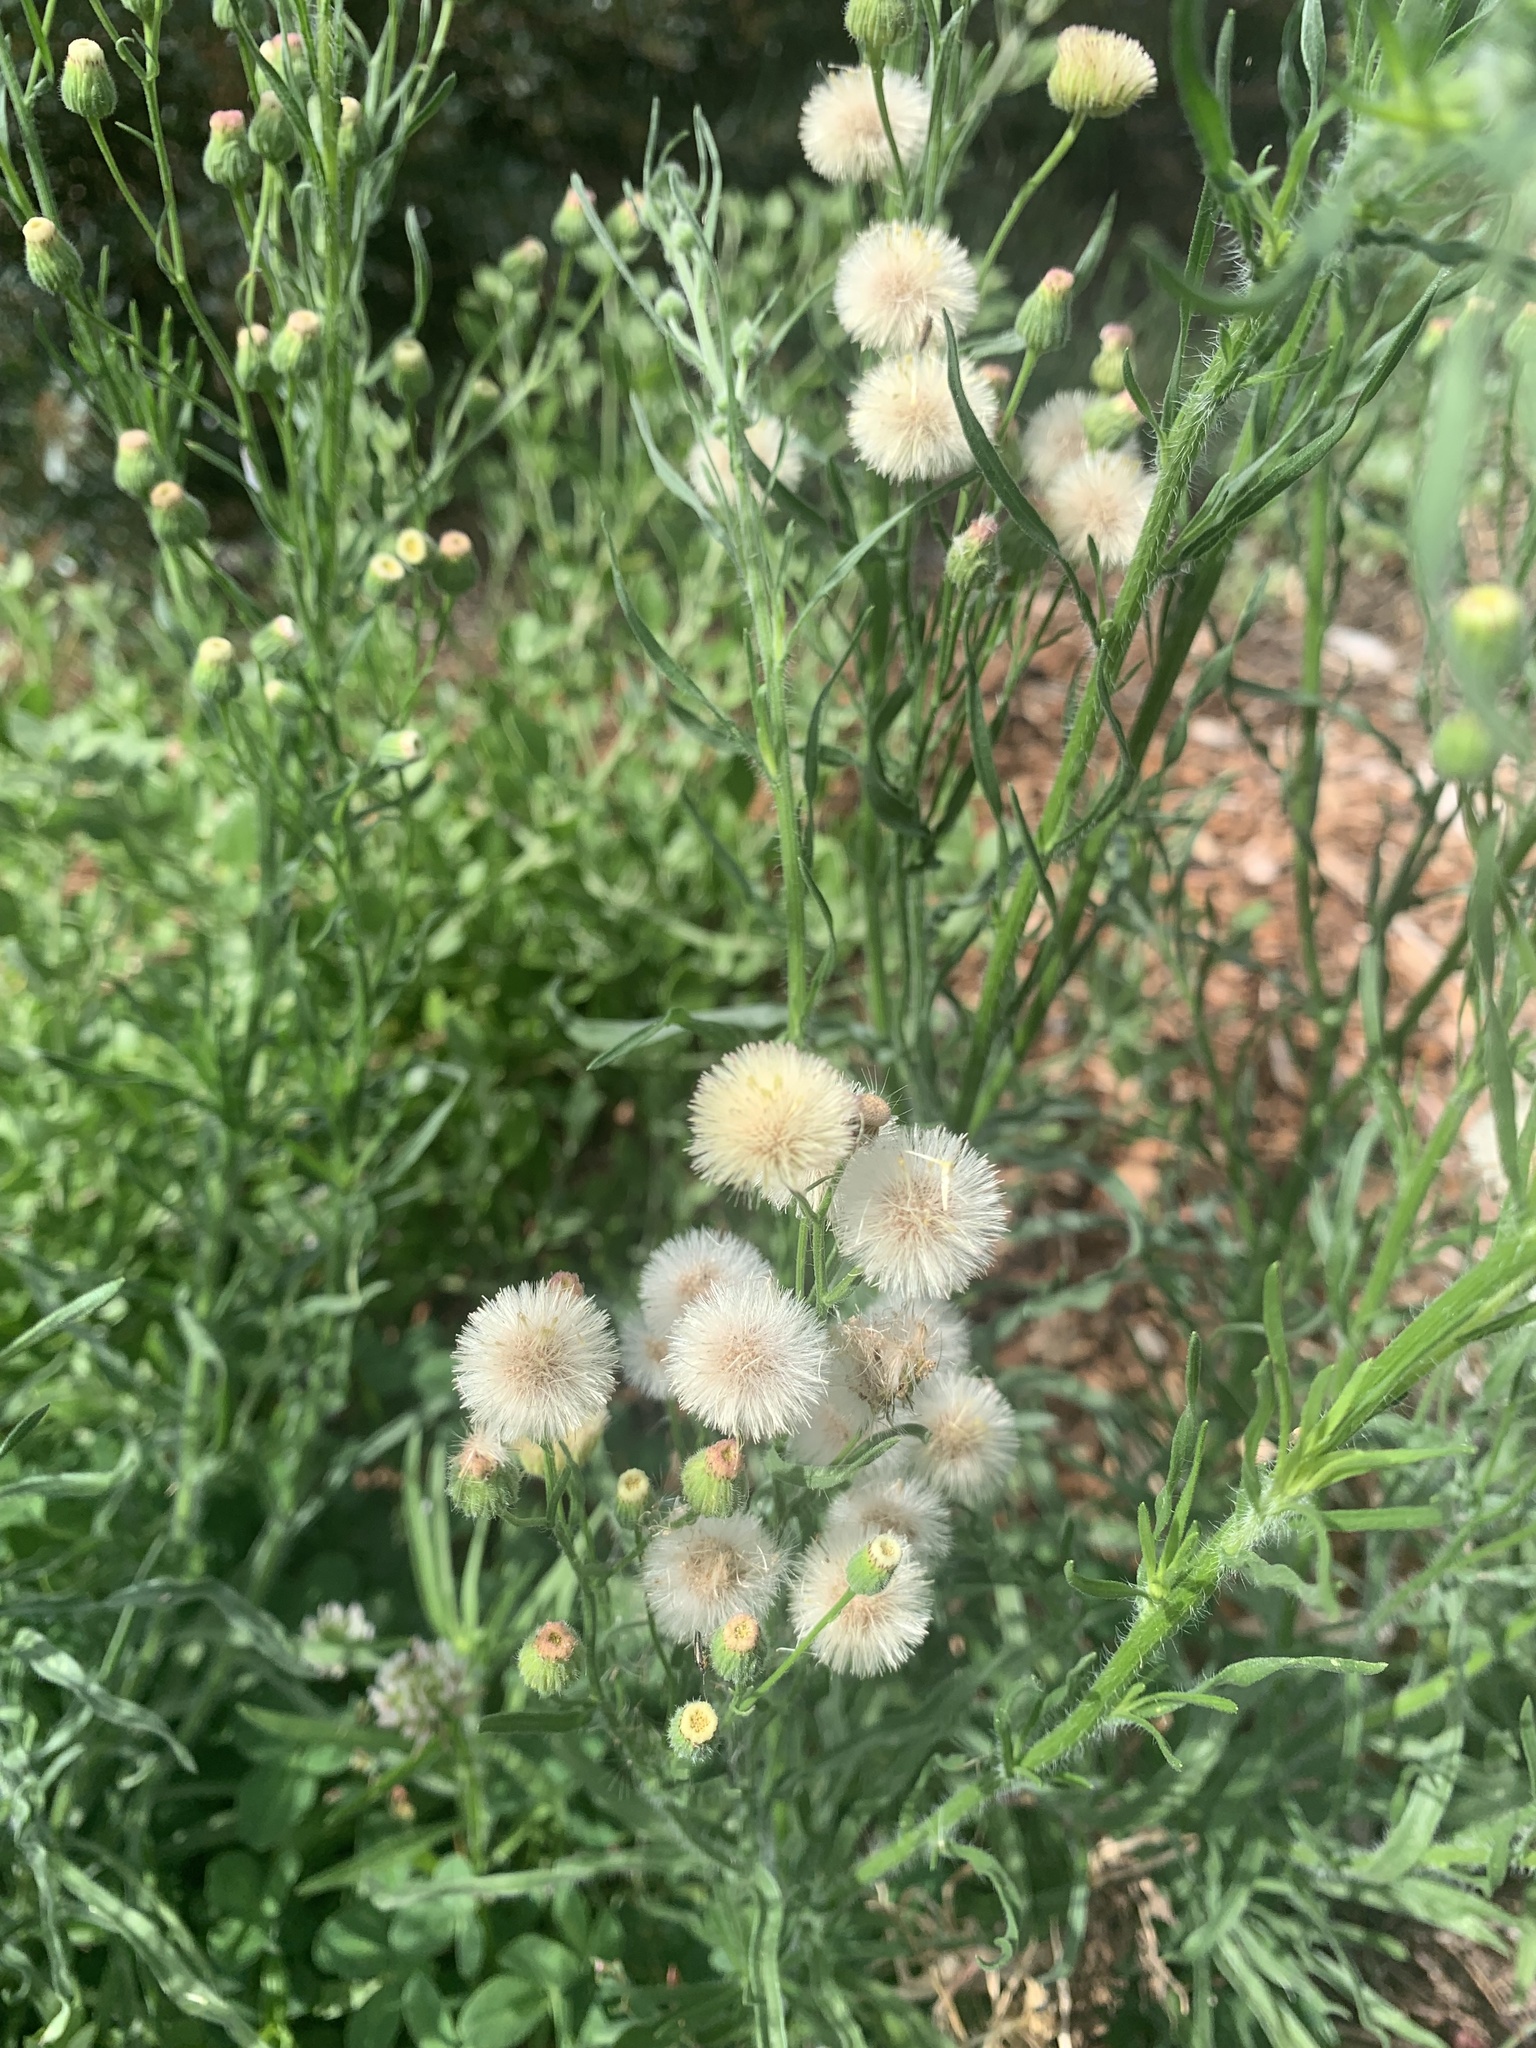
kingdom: Plantae
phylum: Tracheophyta
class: Magnoliopsida
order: Asterales
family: Asteraceae
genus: Erigeron
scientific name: Erigeron bonariensis
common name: Argentine fleabane
